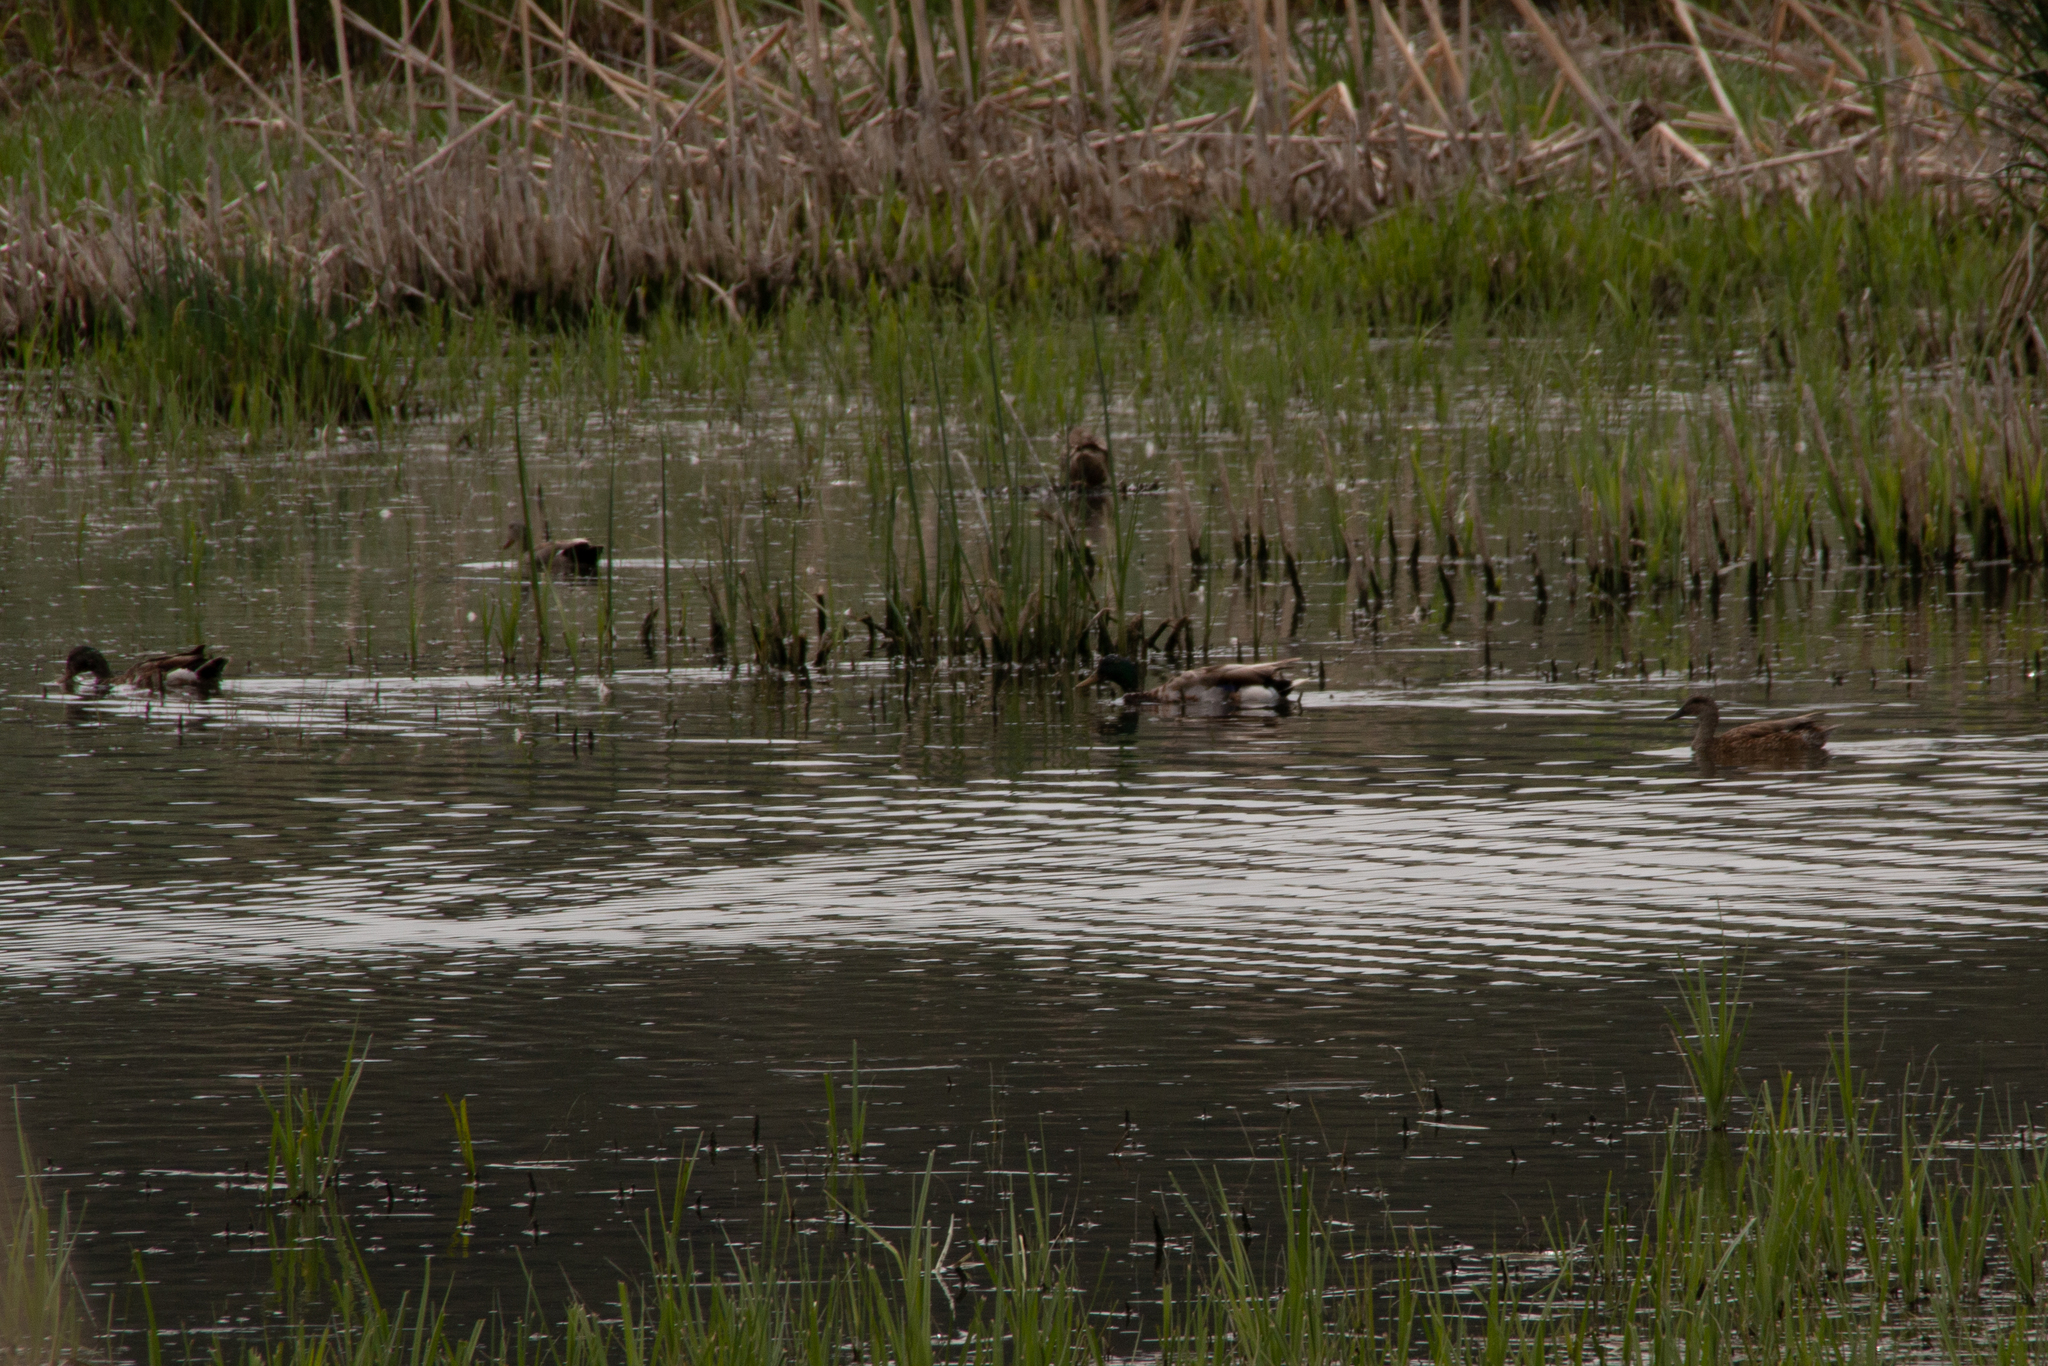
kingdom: Animalia
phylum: Chordata
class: Aves
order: Anseriformes
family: Anatidae
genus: Anas
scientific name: Anas acuta
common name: Northern pintail
